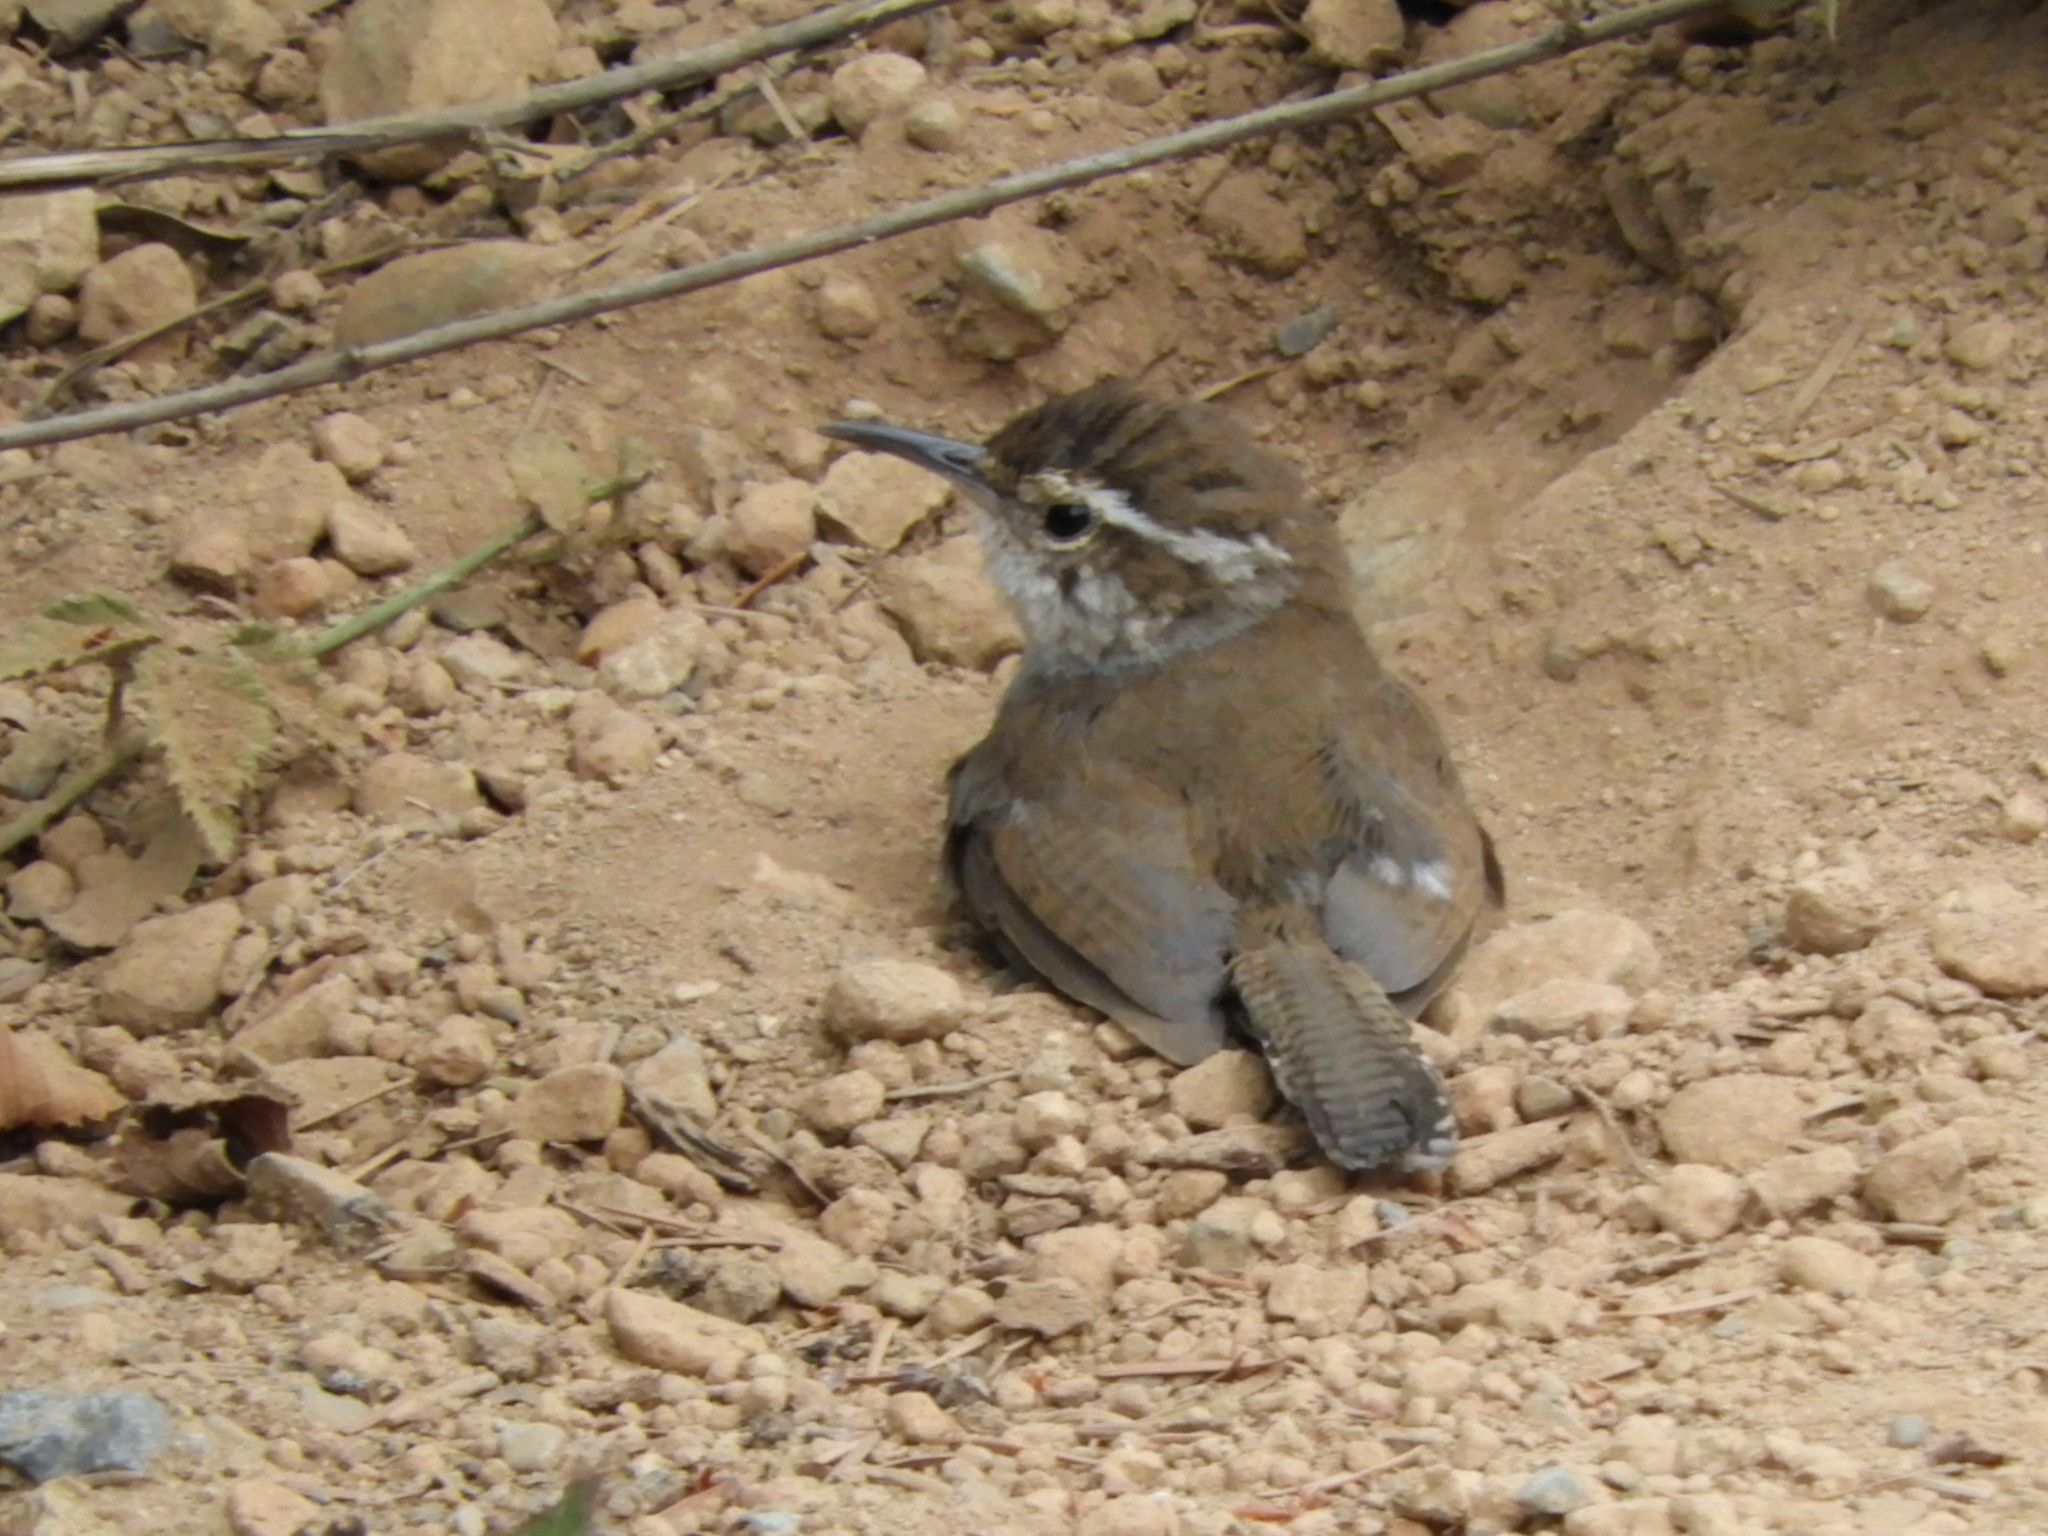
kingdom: Animalia
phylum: Chordata
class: Aves
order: Passeriformes
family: Troglodytidae
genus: Thryomanes
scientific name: Thryomanes bewickii
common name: Bewick's wren
